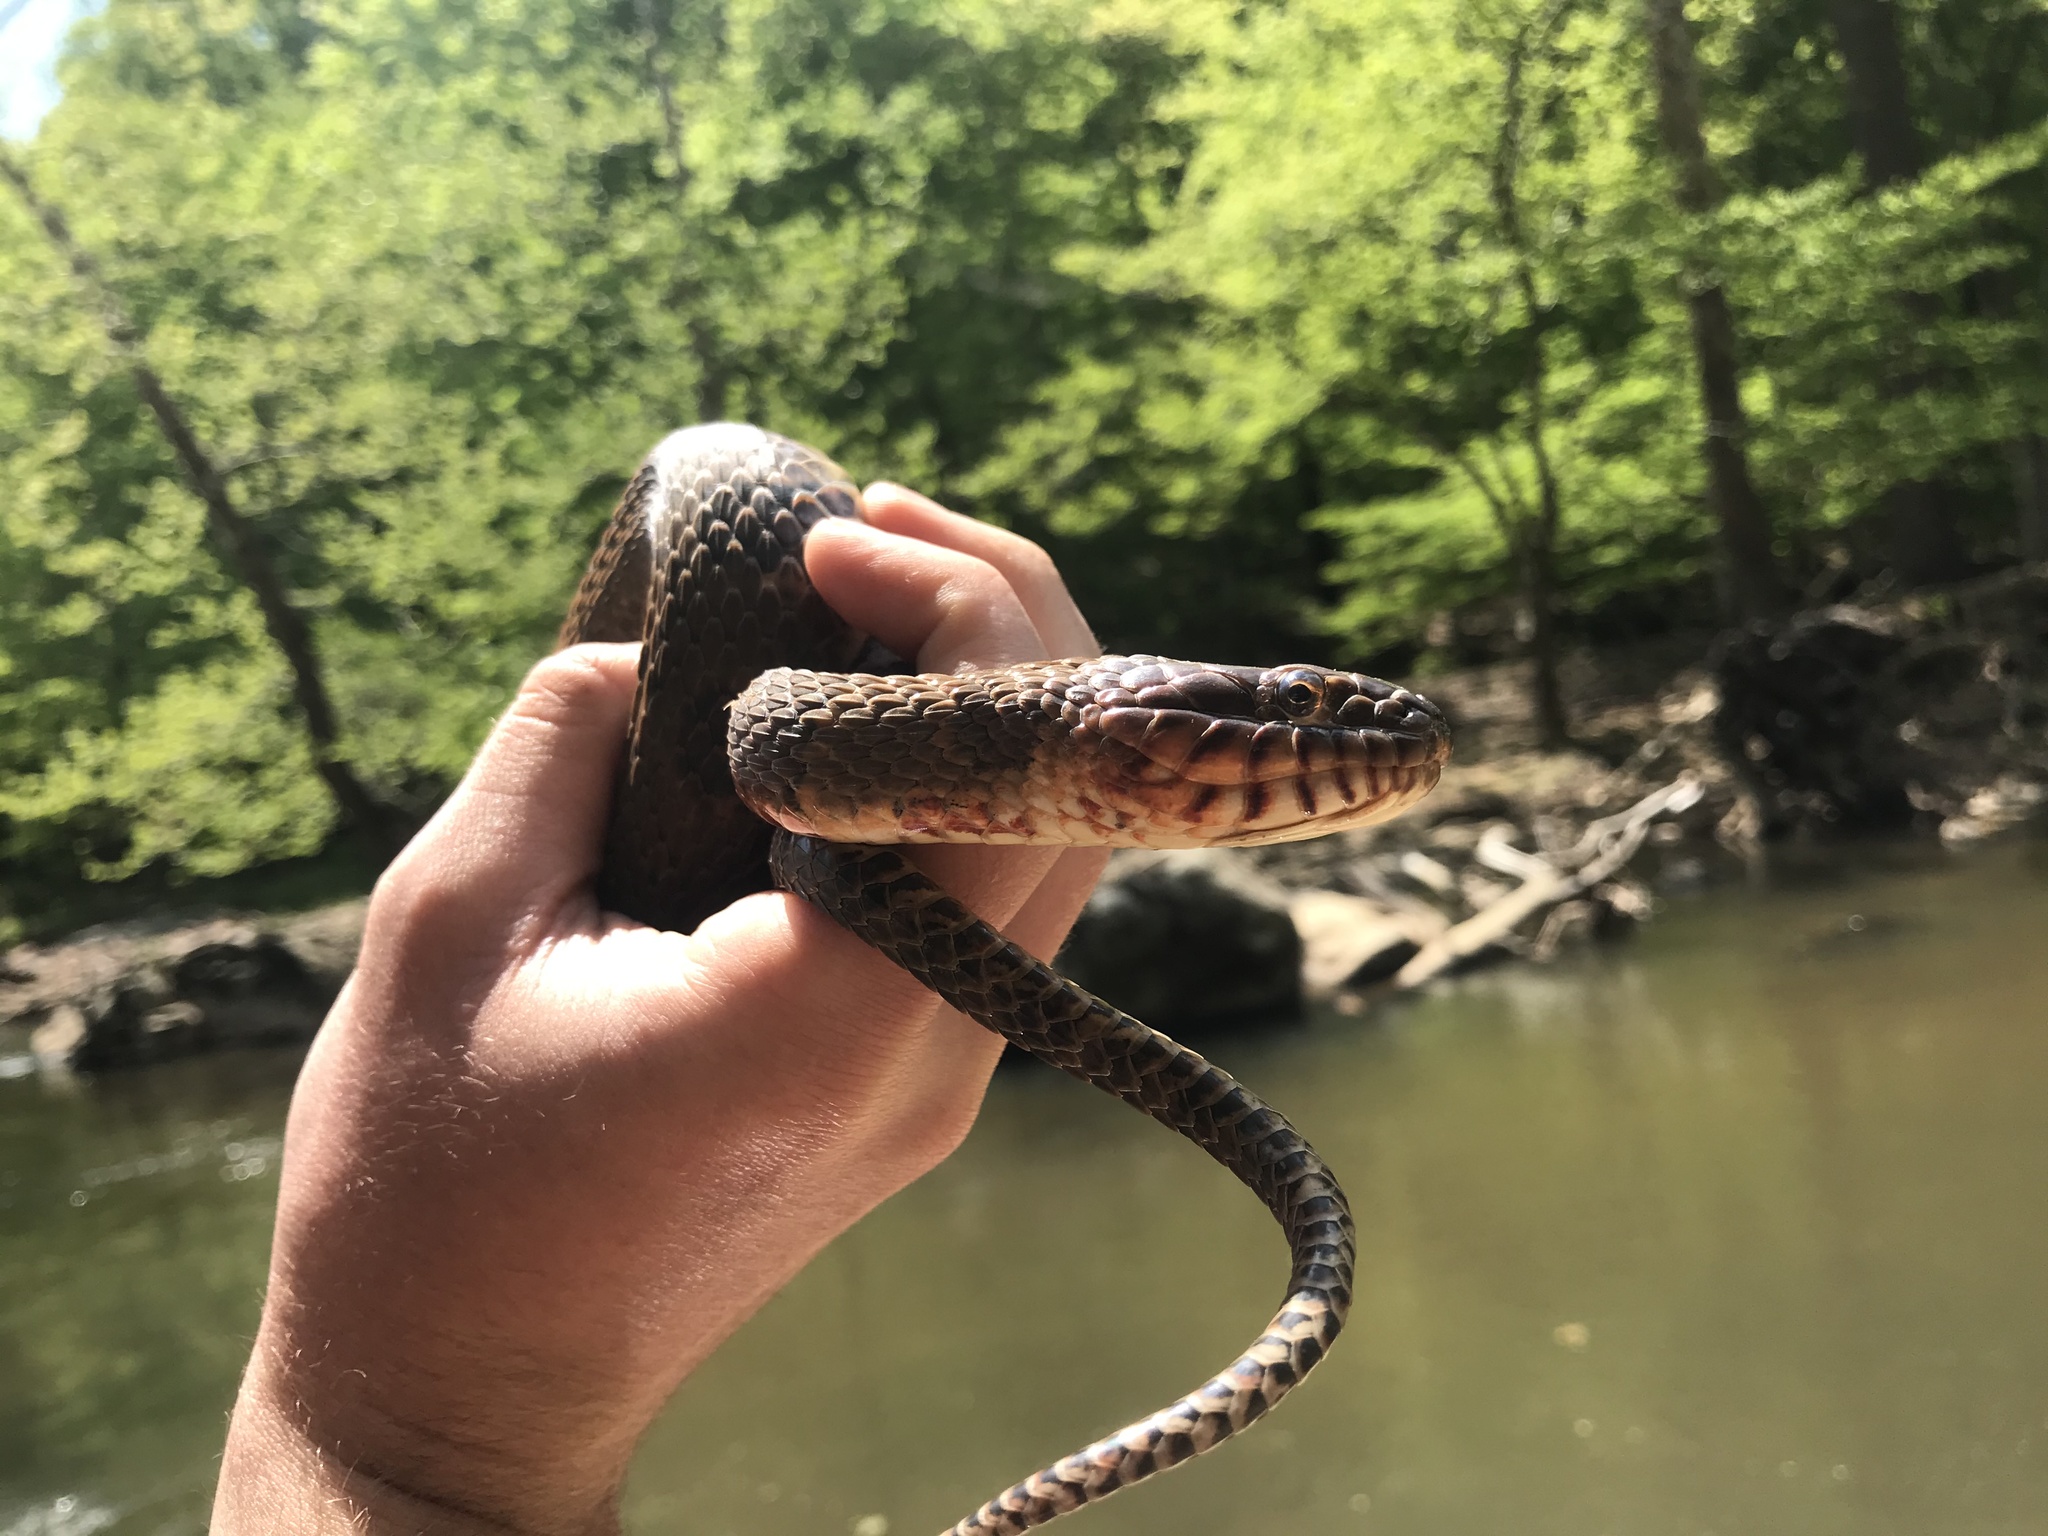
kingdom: Animalia
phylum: Chordata
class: Squamata
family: Colubridae
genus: Nerodia
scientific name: Nerodia sipedon
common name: Northern water snake
